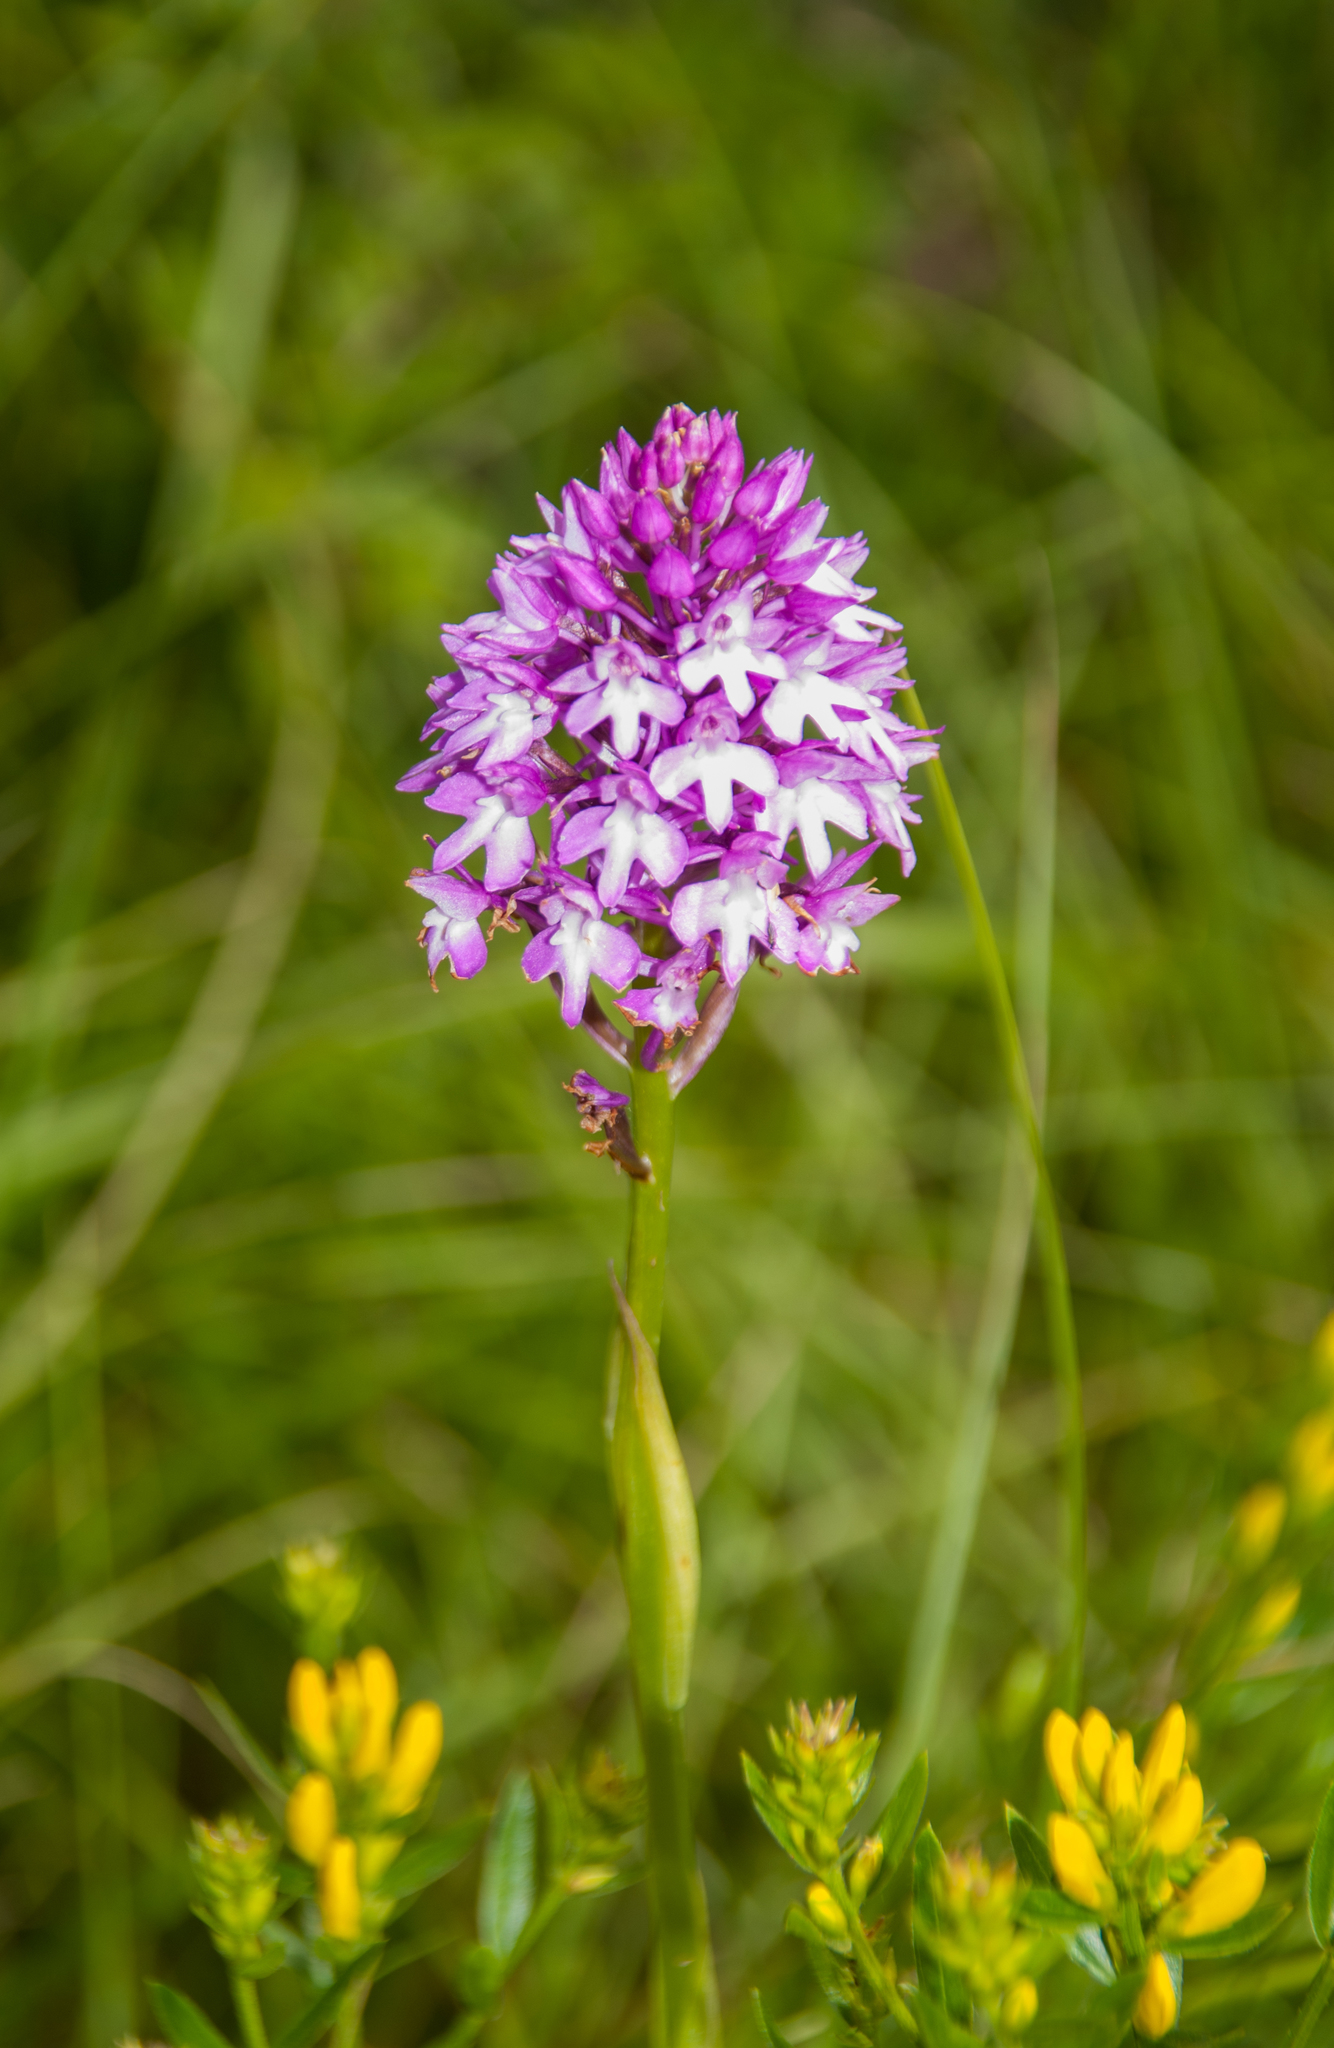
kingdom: Plantae
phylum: Tracheophyta
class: Liliopsida
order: Asparagales
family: Orchidaceae
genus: Anacamptis
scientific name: Anacamptis pyramidalis
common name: Pyramidal orchid
